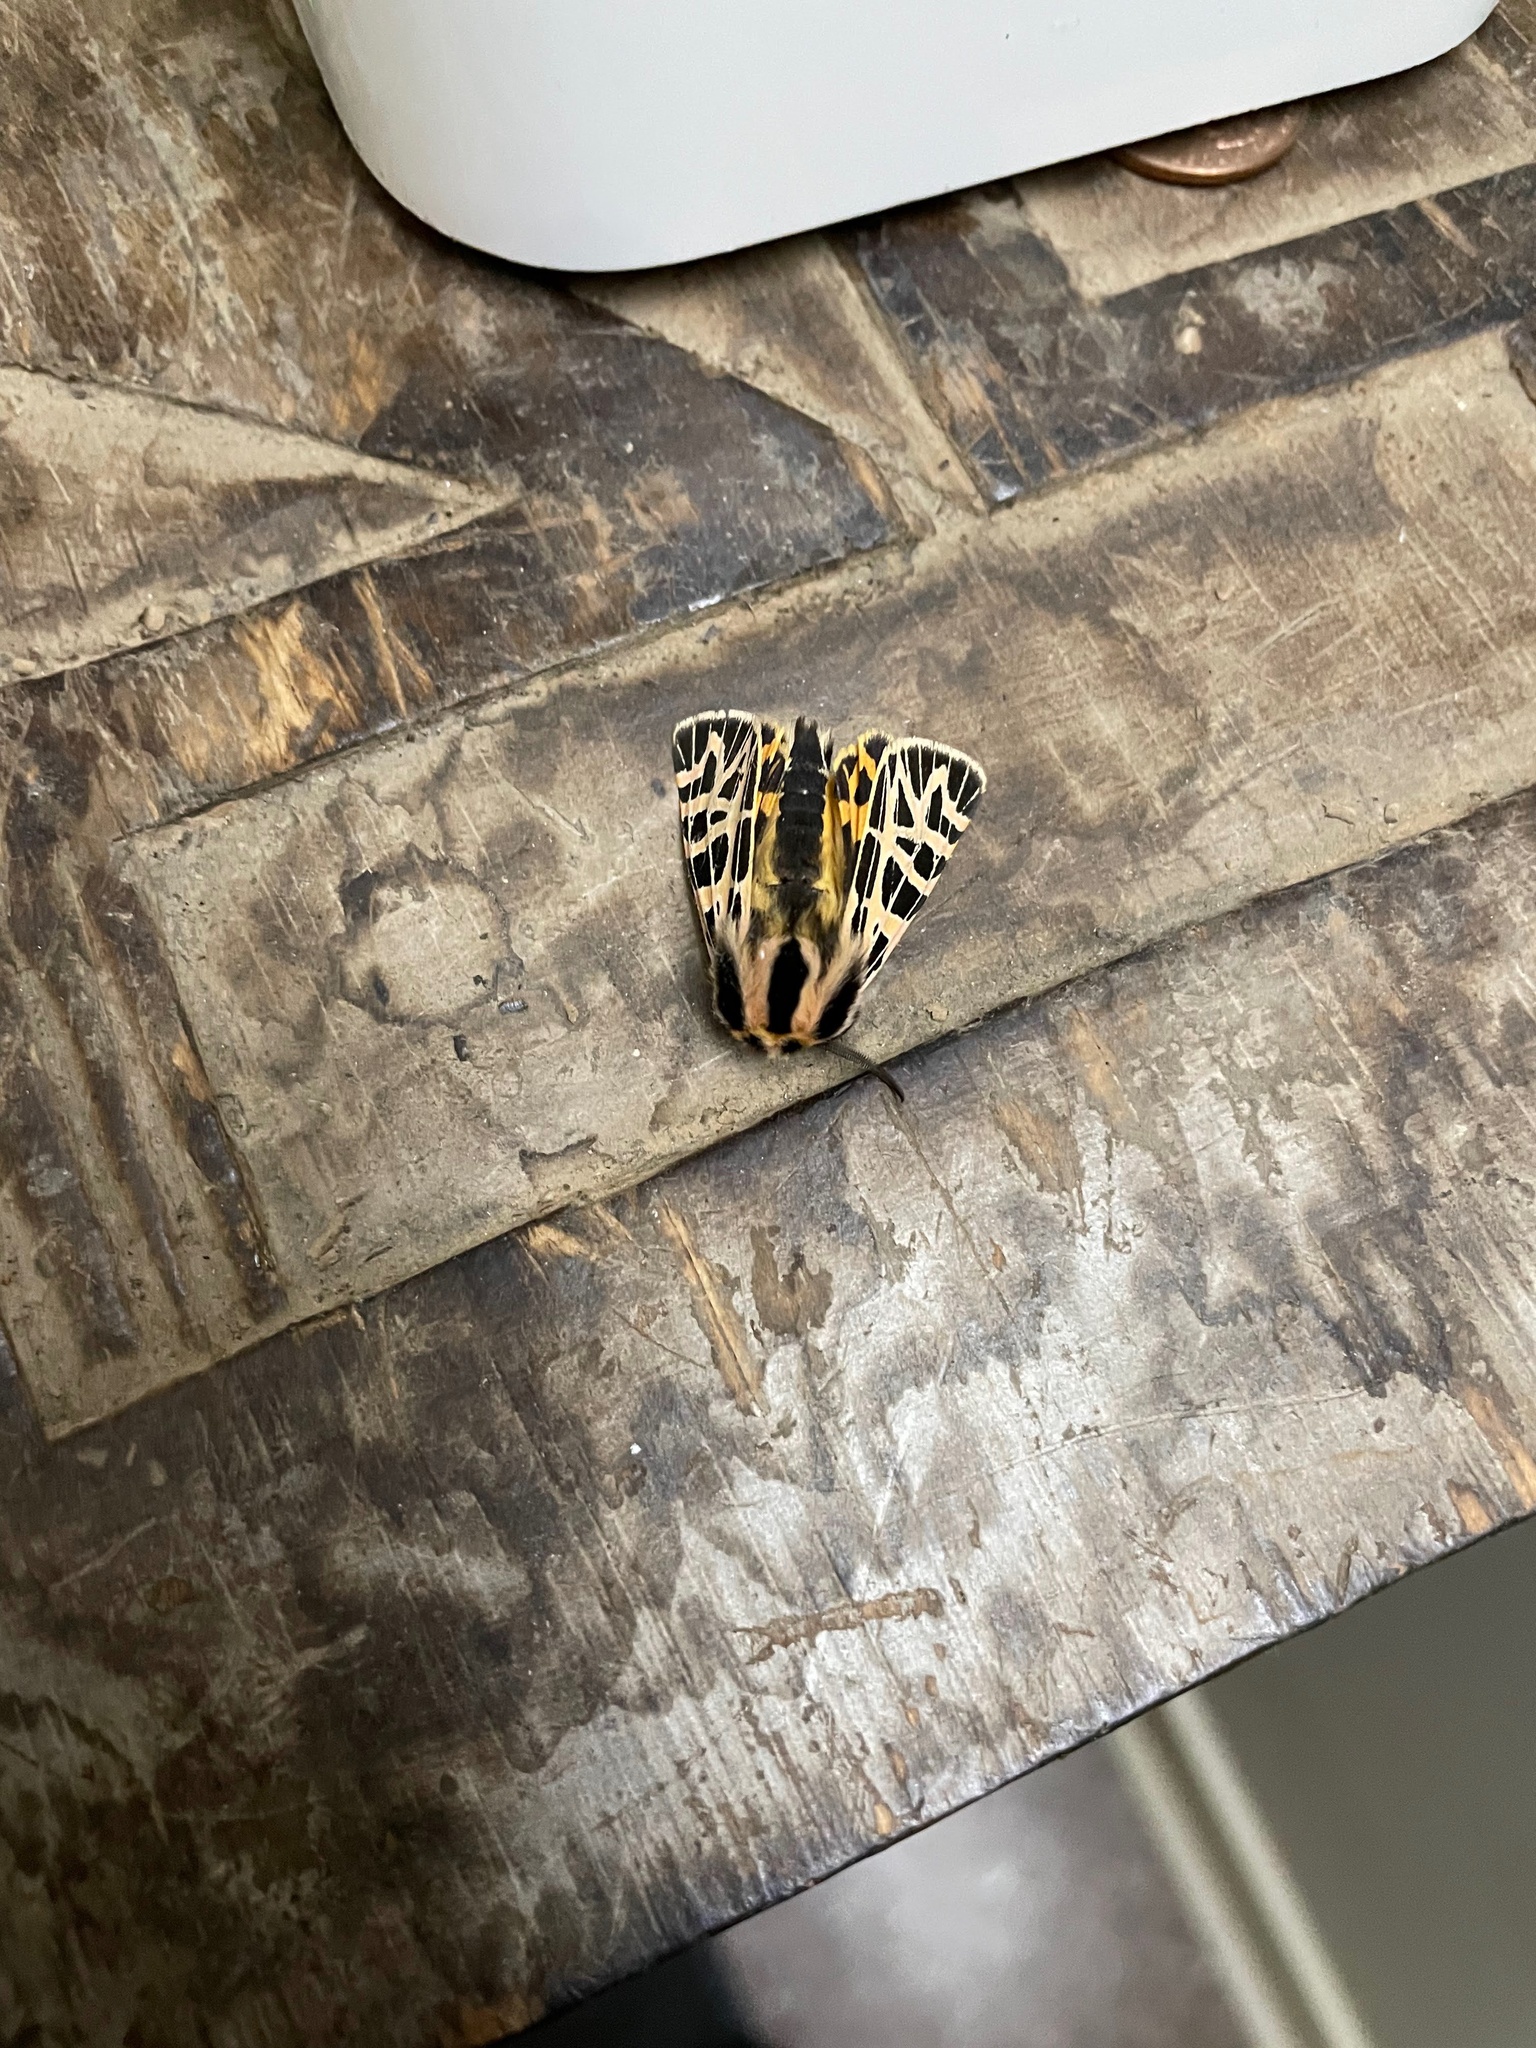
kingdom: Animalia
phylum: Arthropoda
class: Insecta
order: Lepidoptera
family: Erebidae
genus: Apantesis
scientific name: Apantesis
